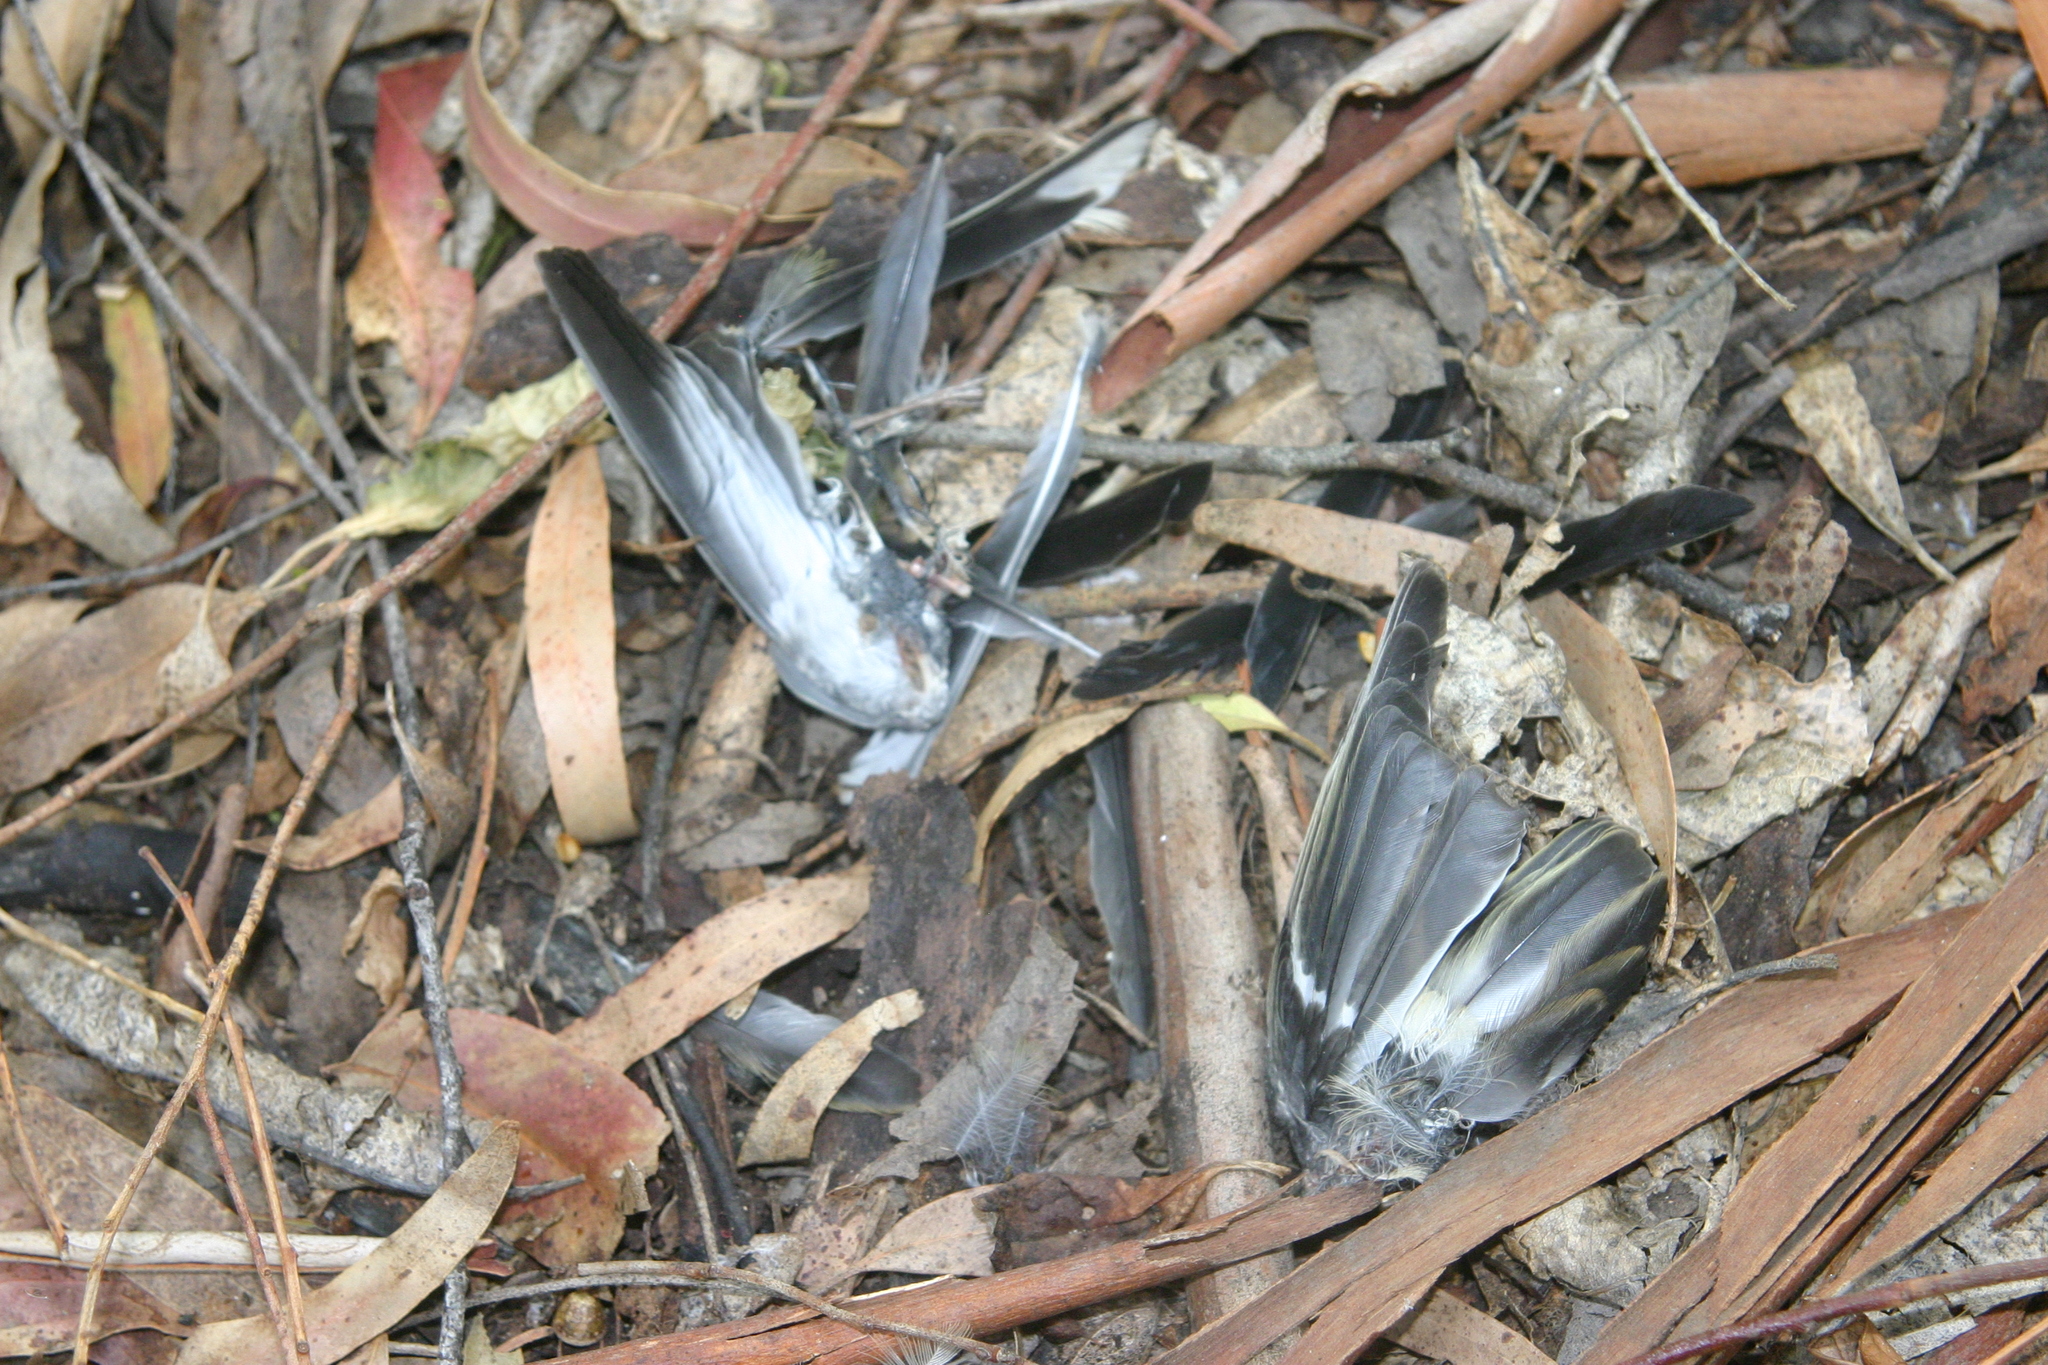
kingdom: Animalia
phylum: Chordata
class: Aves
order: Passeriformes
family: Fringillidae
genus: Fringilla
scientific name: Fringilla coelebs
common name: Common chaffinch
